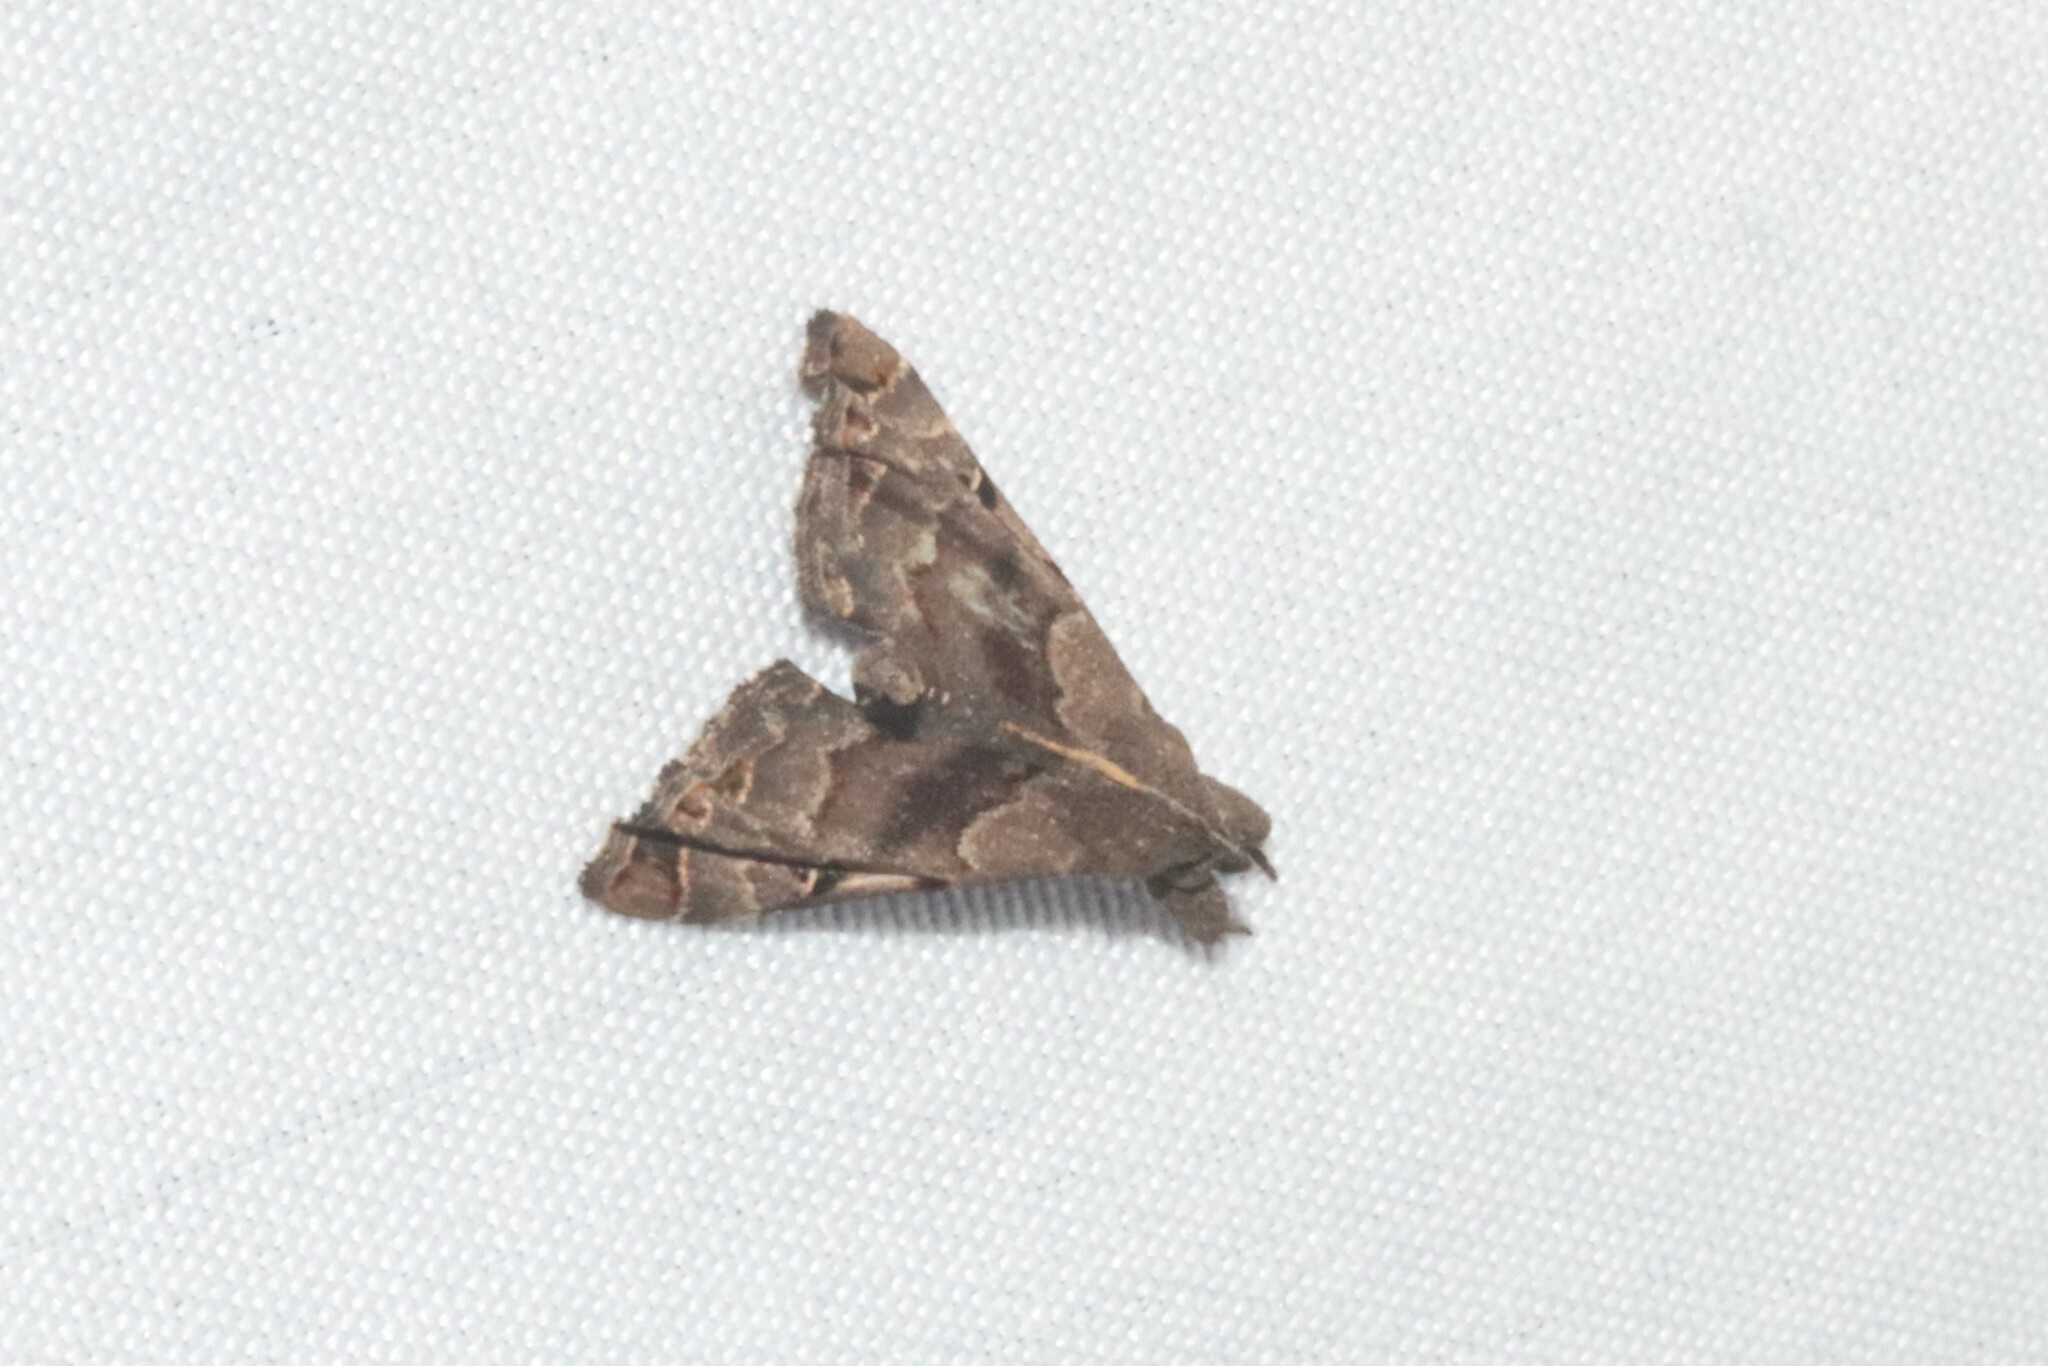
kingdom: Animalia
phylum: Arthropoda
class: Insecta
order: Lepidoptera
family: Erebidae
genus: Palthis
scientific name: Palthis asopialis
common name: Faint-spotted palthis moth
